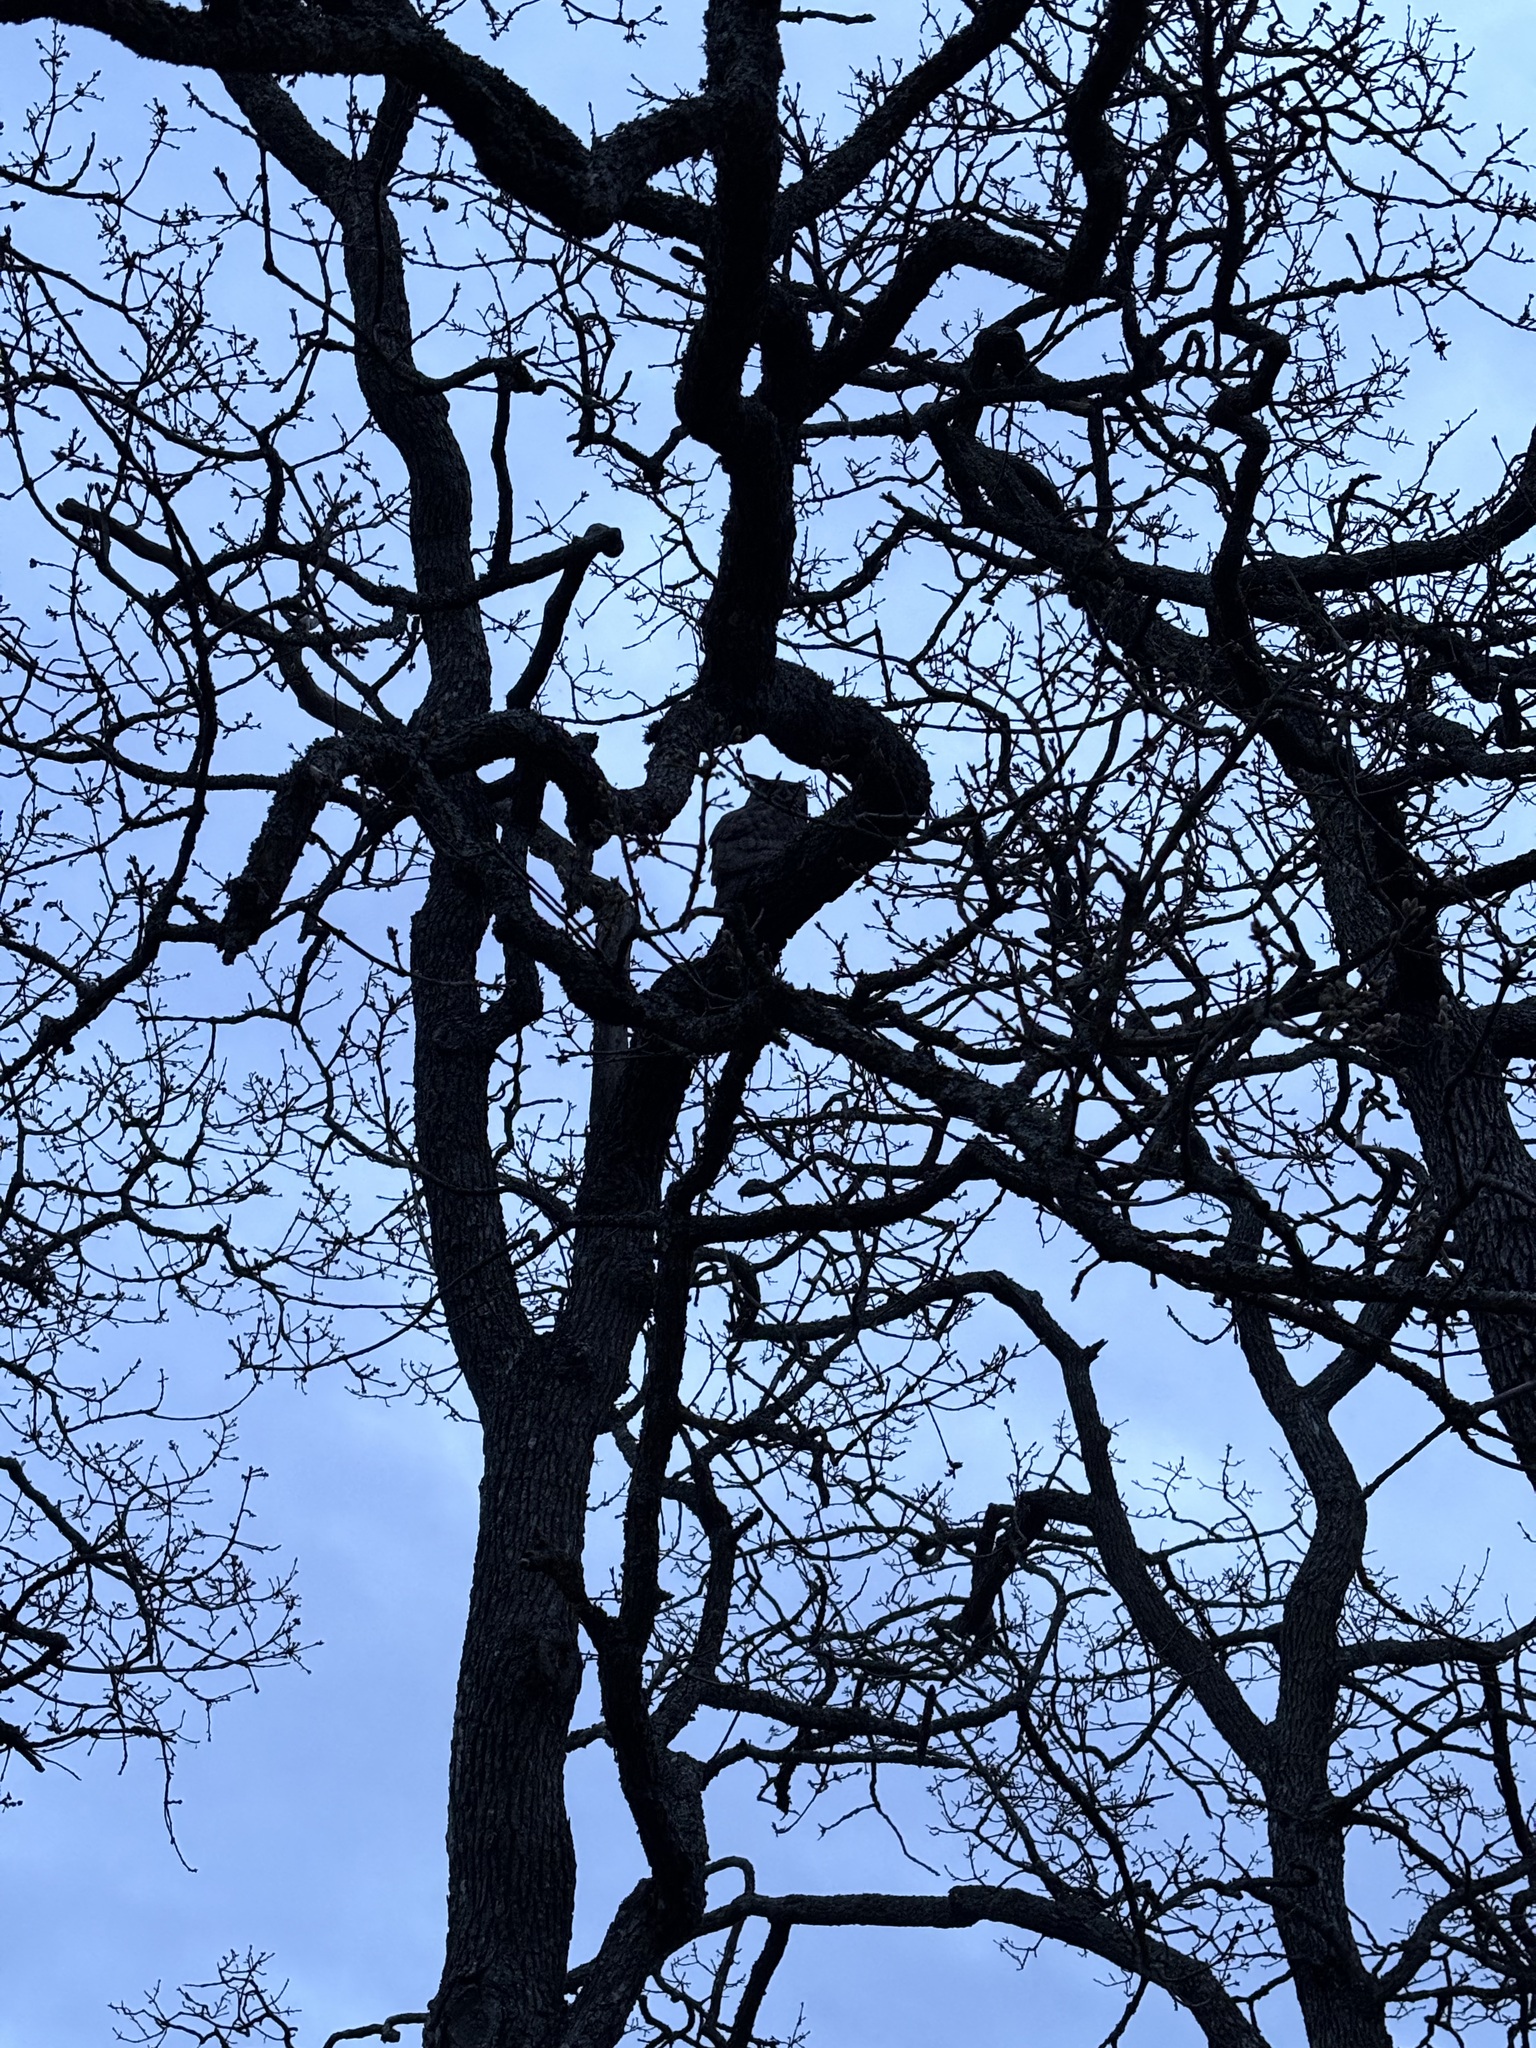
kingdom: Animalia
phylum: Chordata
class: Aves
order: Strigiformes
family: Strigidae
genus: Bubo
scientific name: Bubo virginianus
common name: Great horned owl
